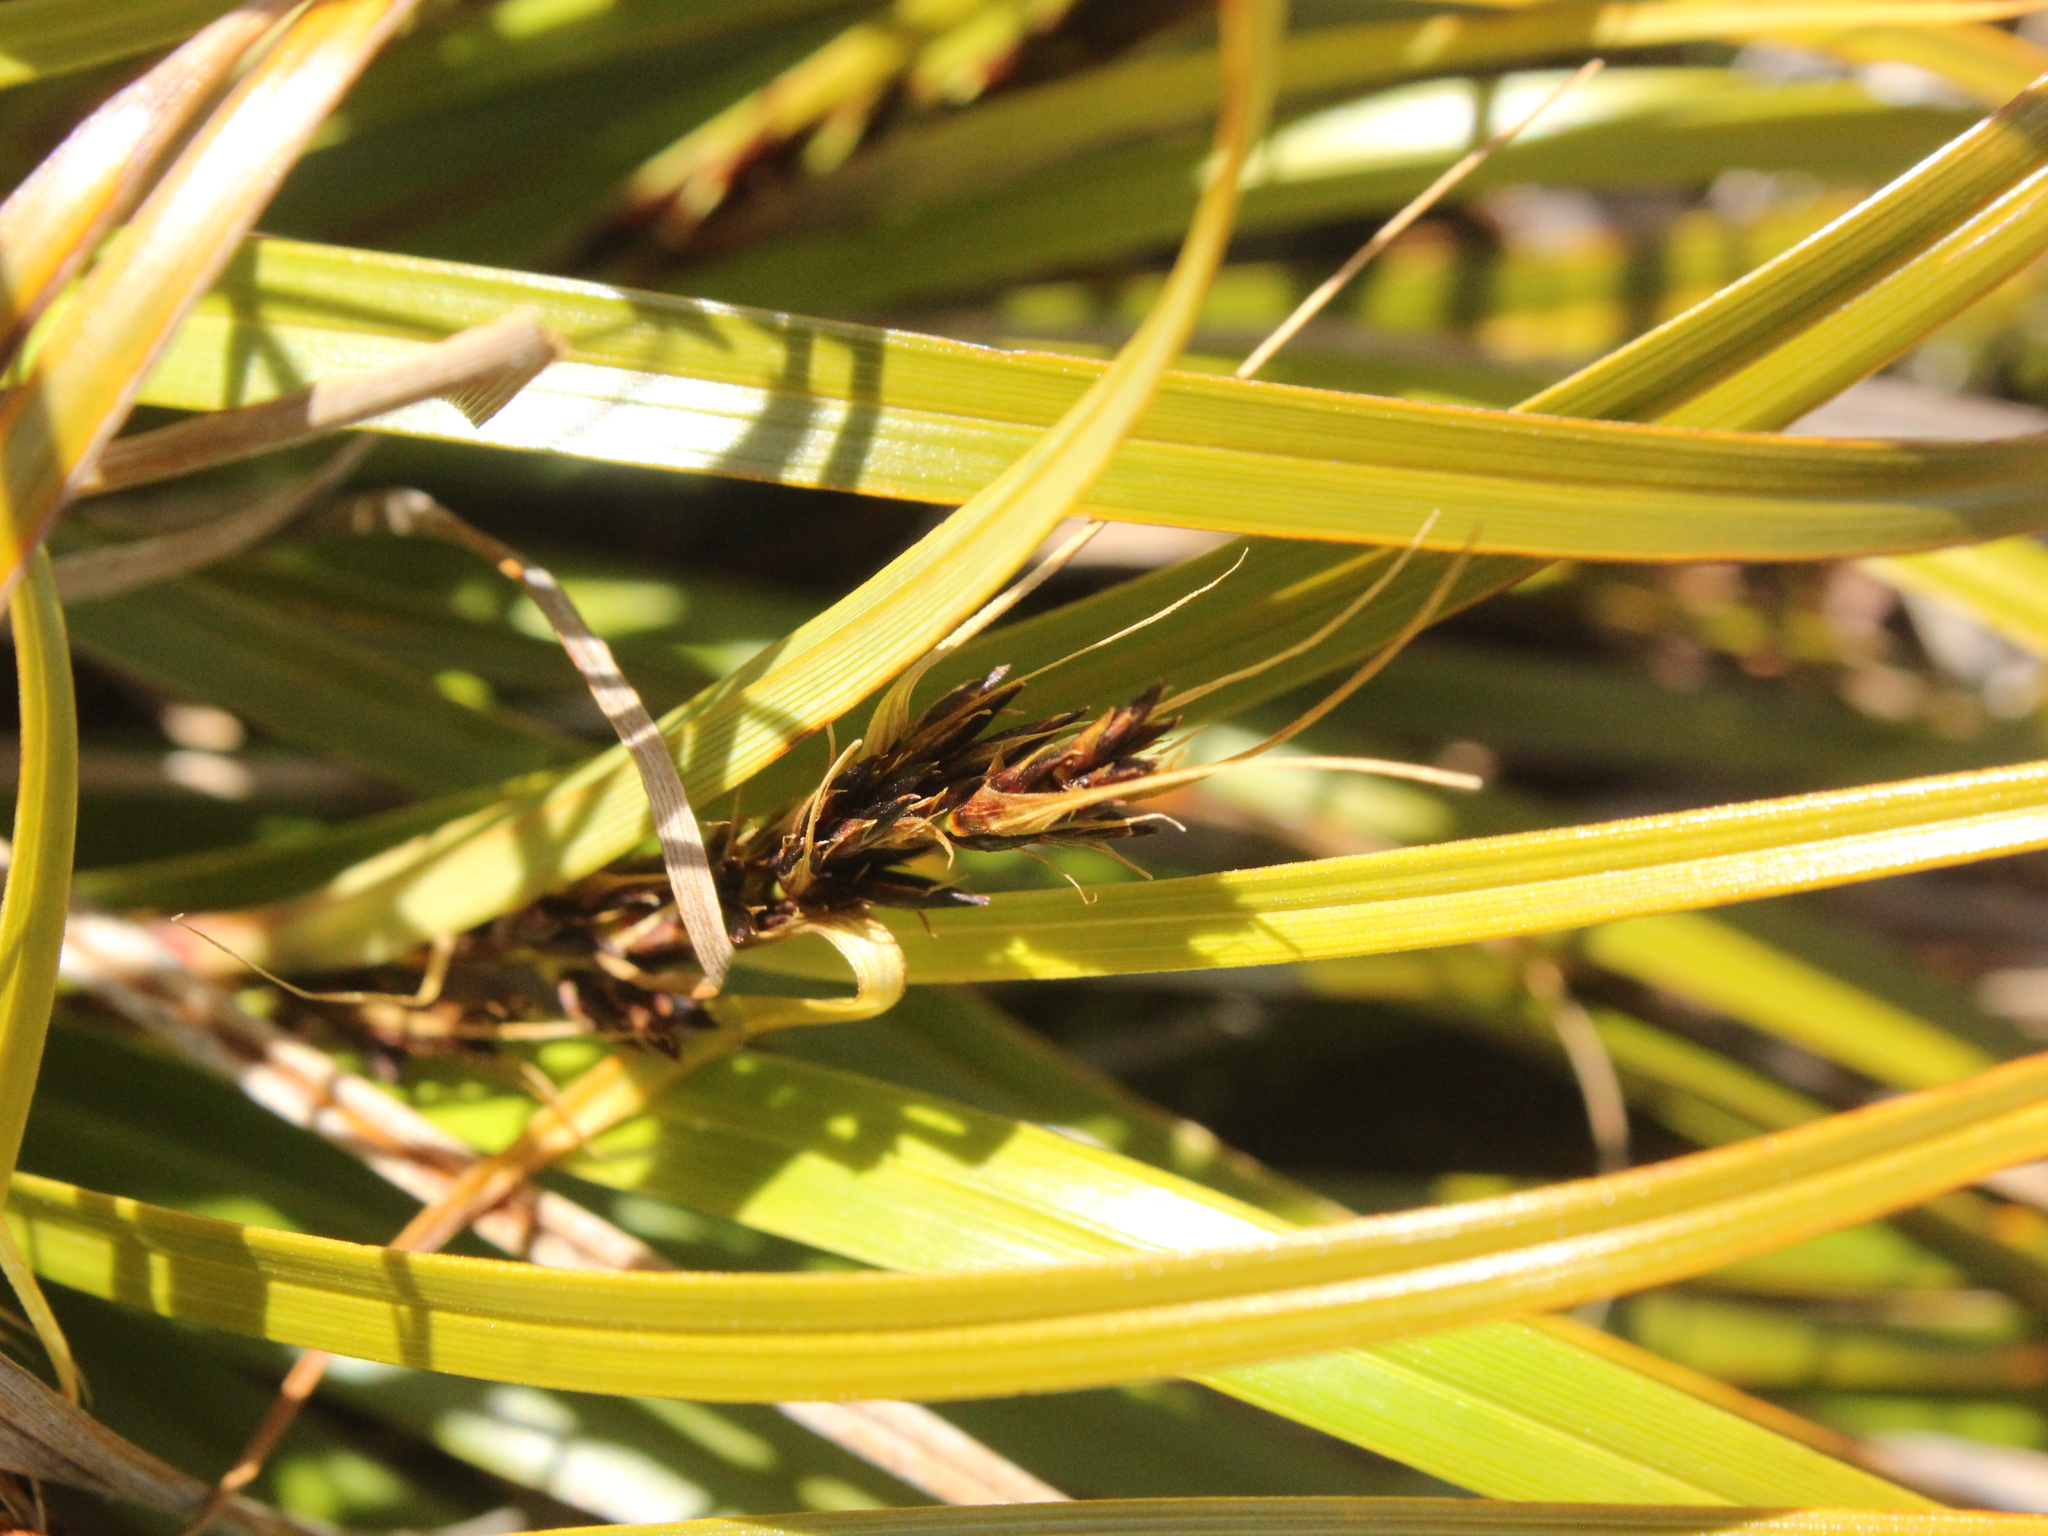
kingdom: Plantae
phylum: Tracheophyta
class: Liliopsida
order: Poales
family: Cyperaceae
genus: Morelotia
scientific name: Morelotia affinis
